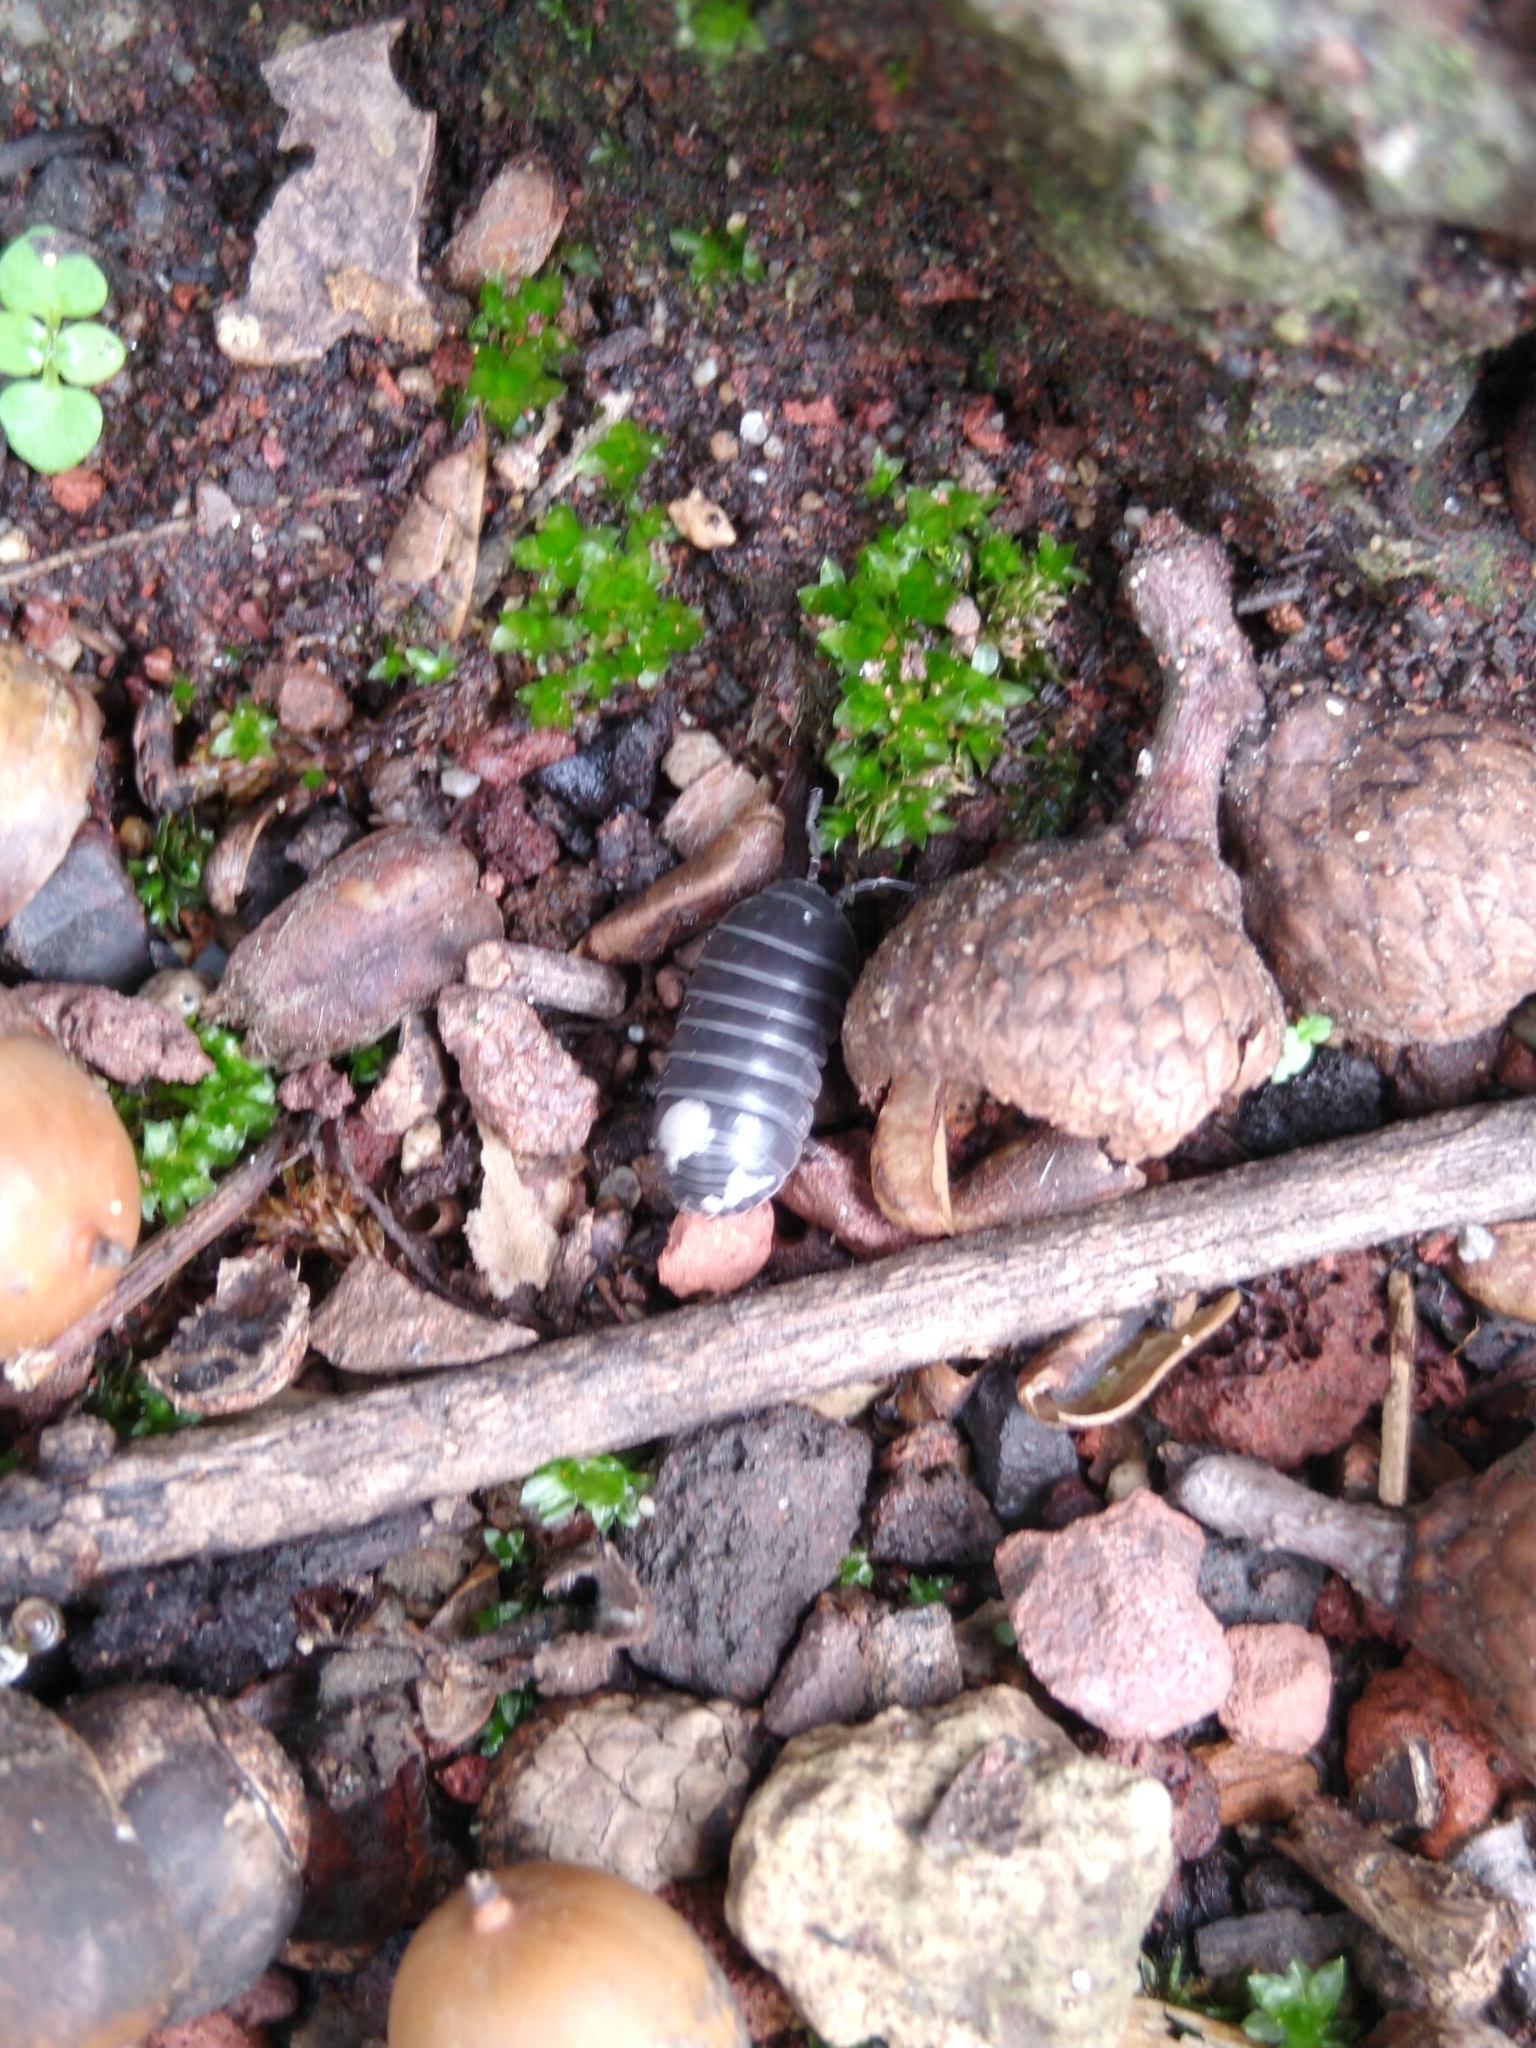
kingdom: Animalia
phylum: Arthropoda
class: Malacostraca
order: Isopoda
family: Armadillidiidae
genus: Armadillidium
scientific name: Armadillidium vulgare
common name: Common pill woodlouse
